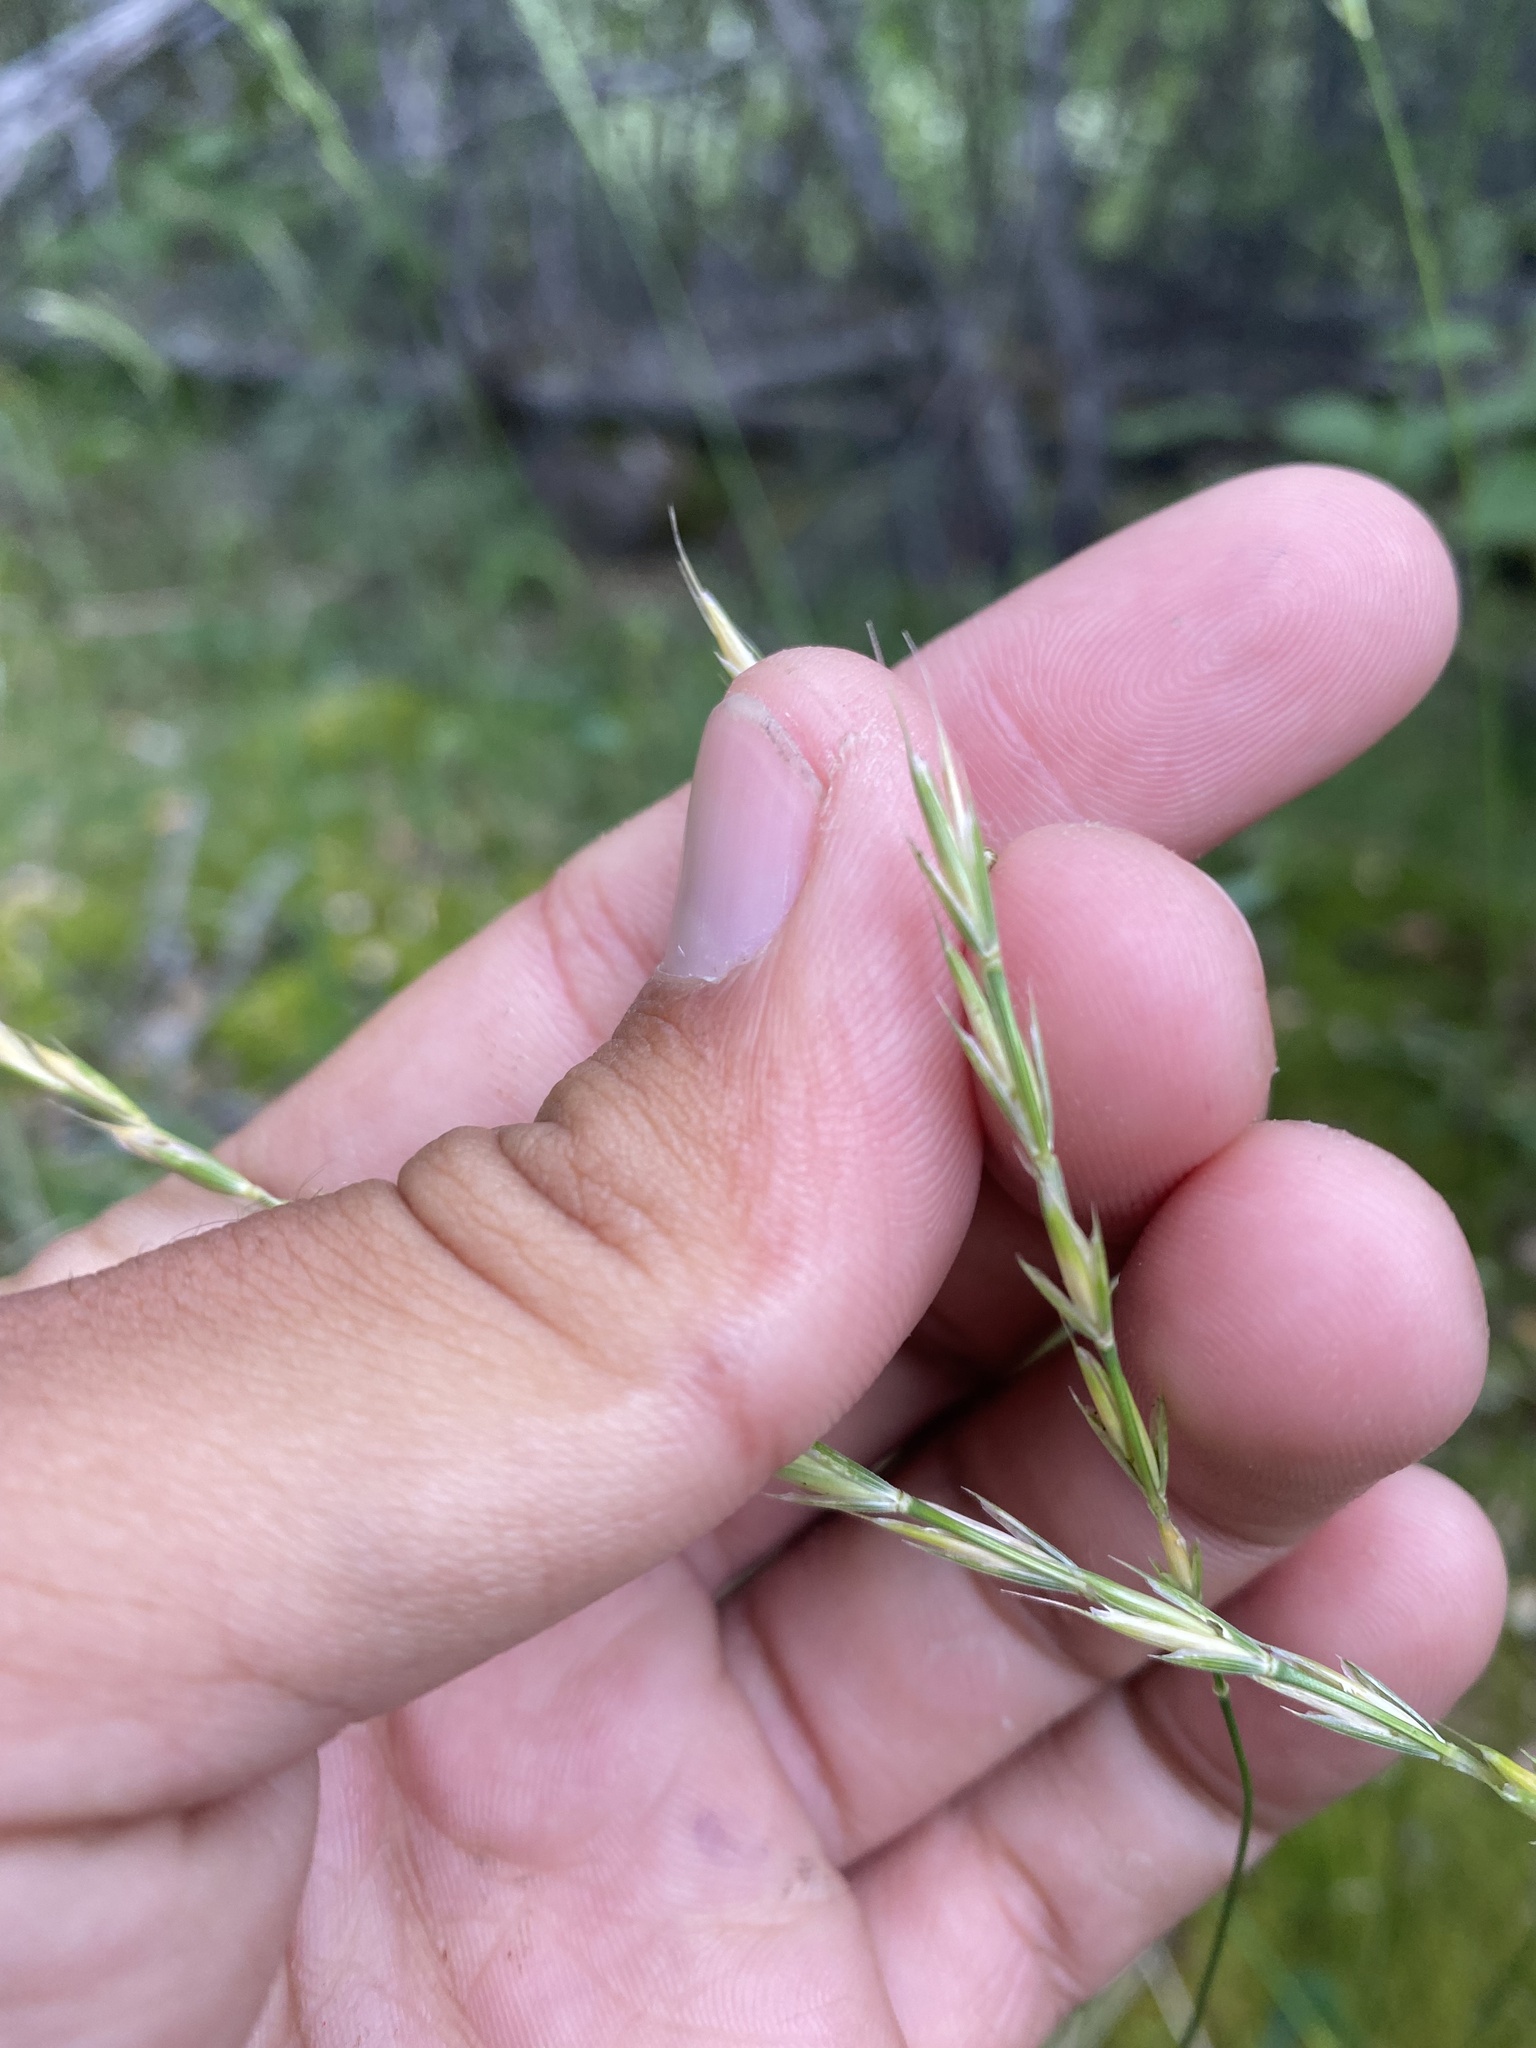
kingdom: Plantae
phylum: Tracheophyta
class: Liliopsida
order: Poales
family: Poaceae
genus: Elymus
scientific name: Elymus jacutensis
